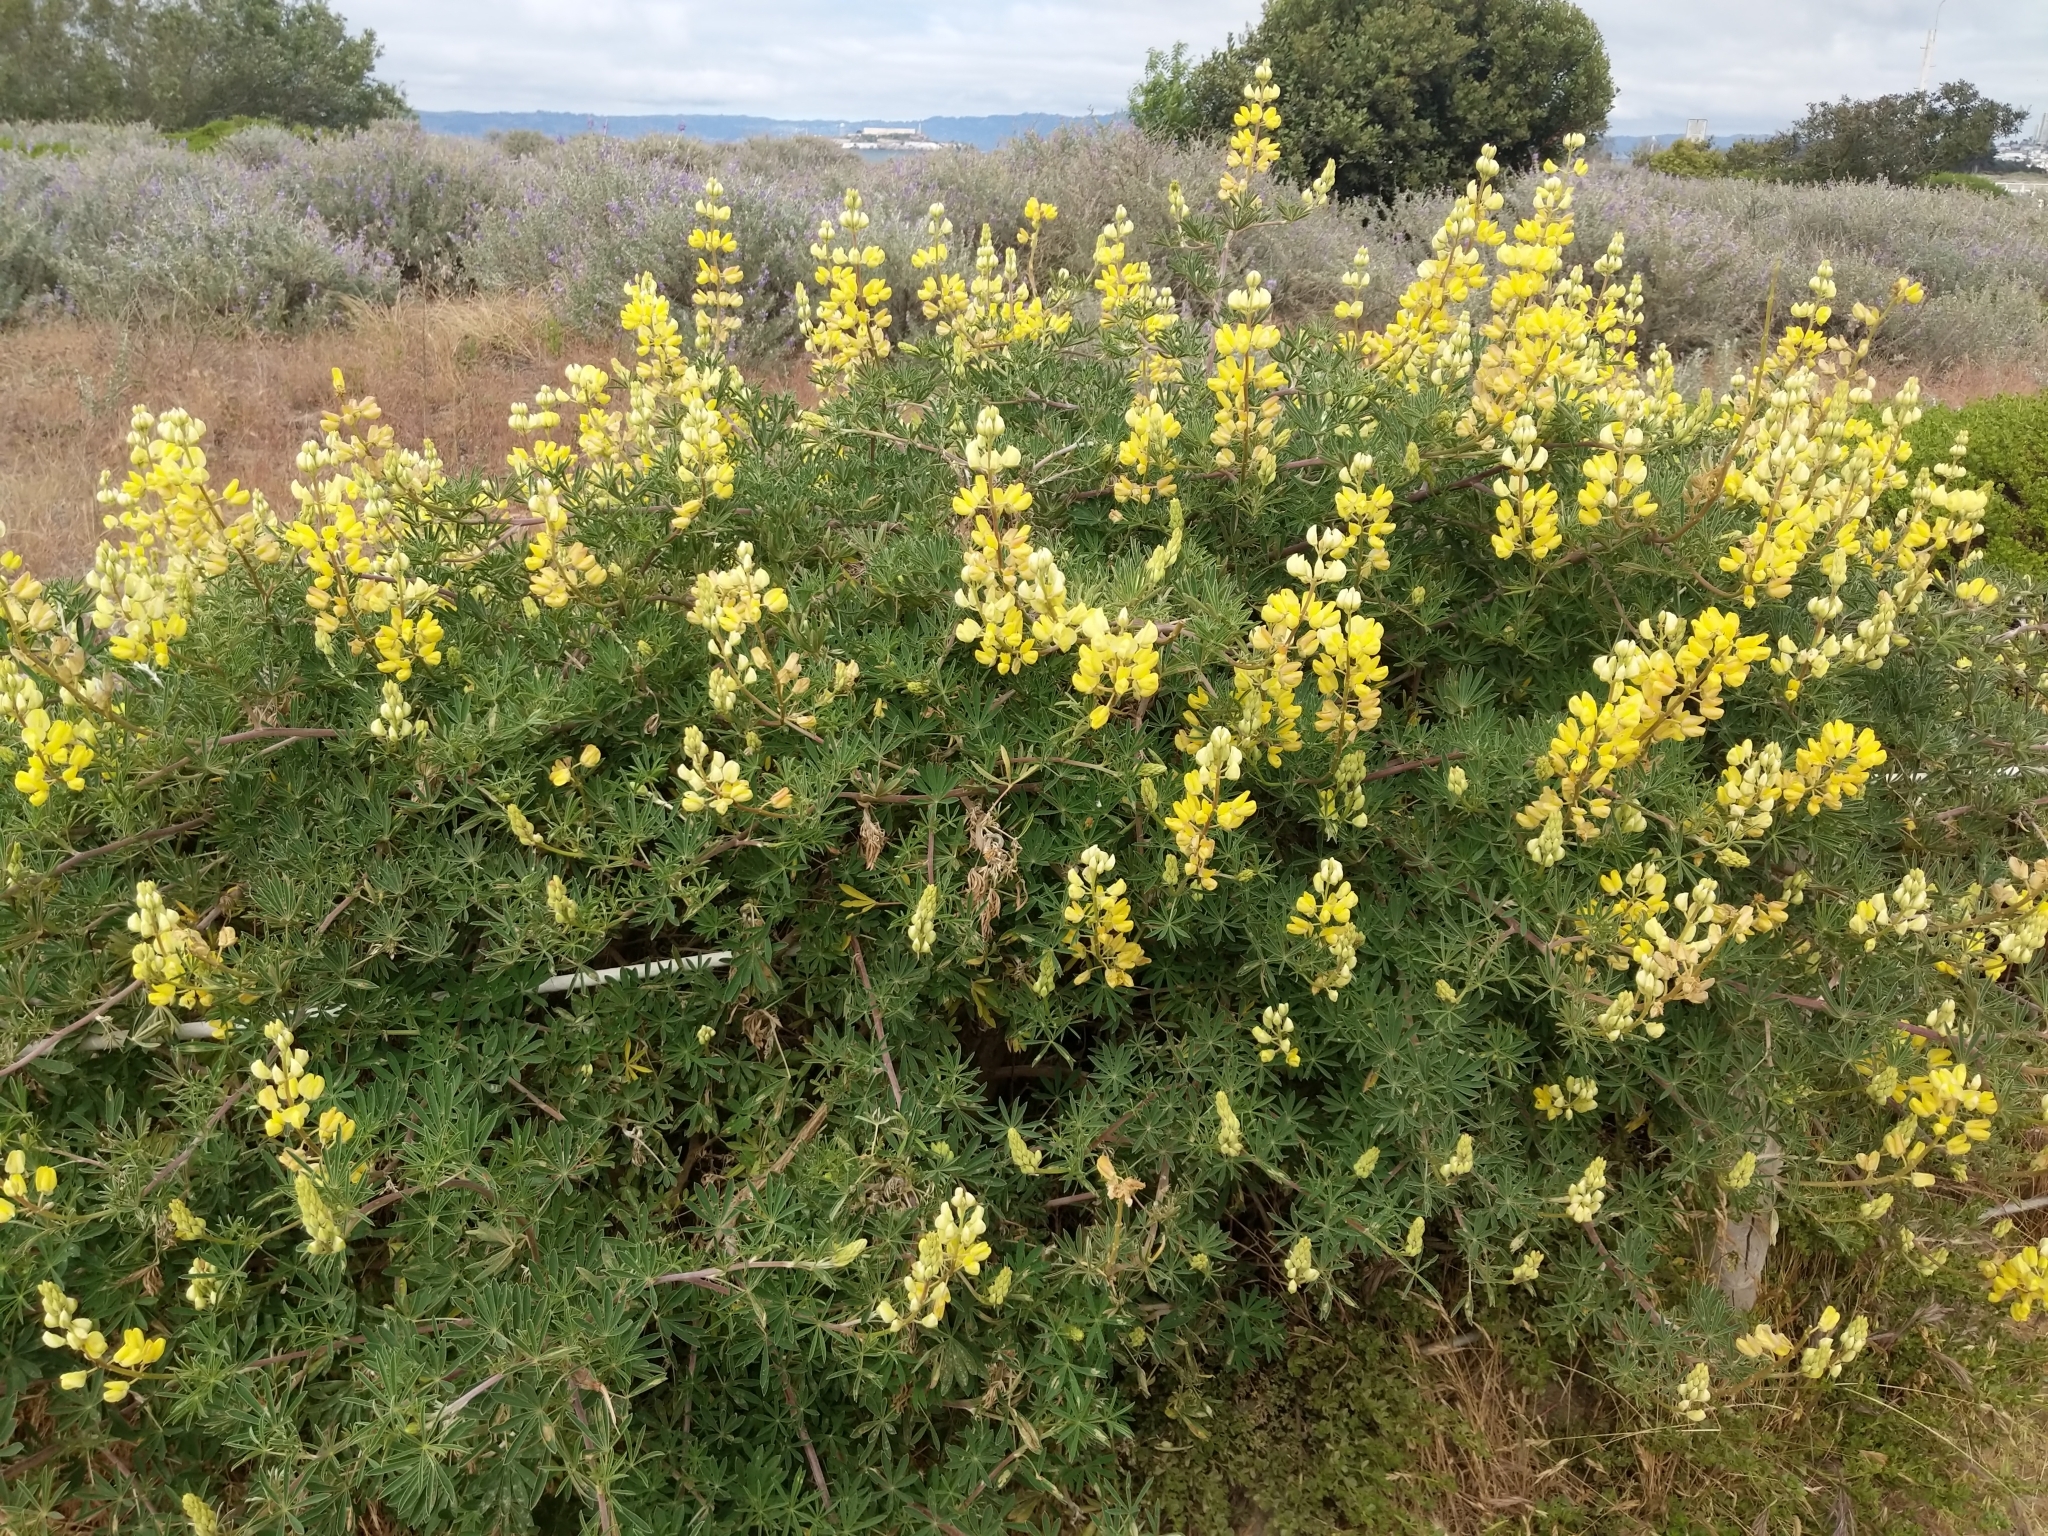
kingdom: Plantae
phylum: Tracheophyta
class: Magnoliopsida
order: Fabales
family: Fabaceae
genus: Lupinus
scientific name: Lupinus arboreus
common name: Yellow bush lupine
